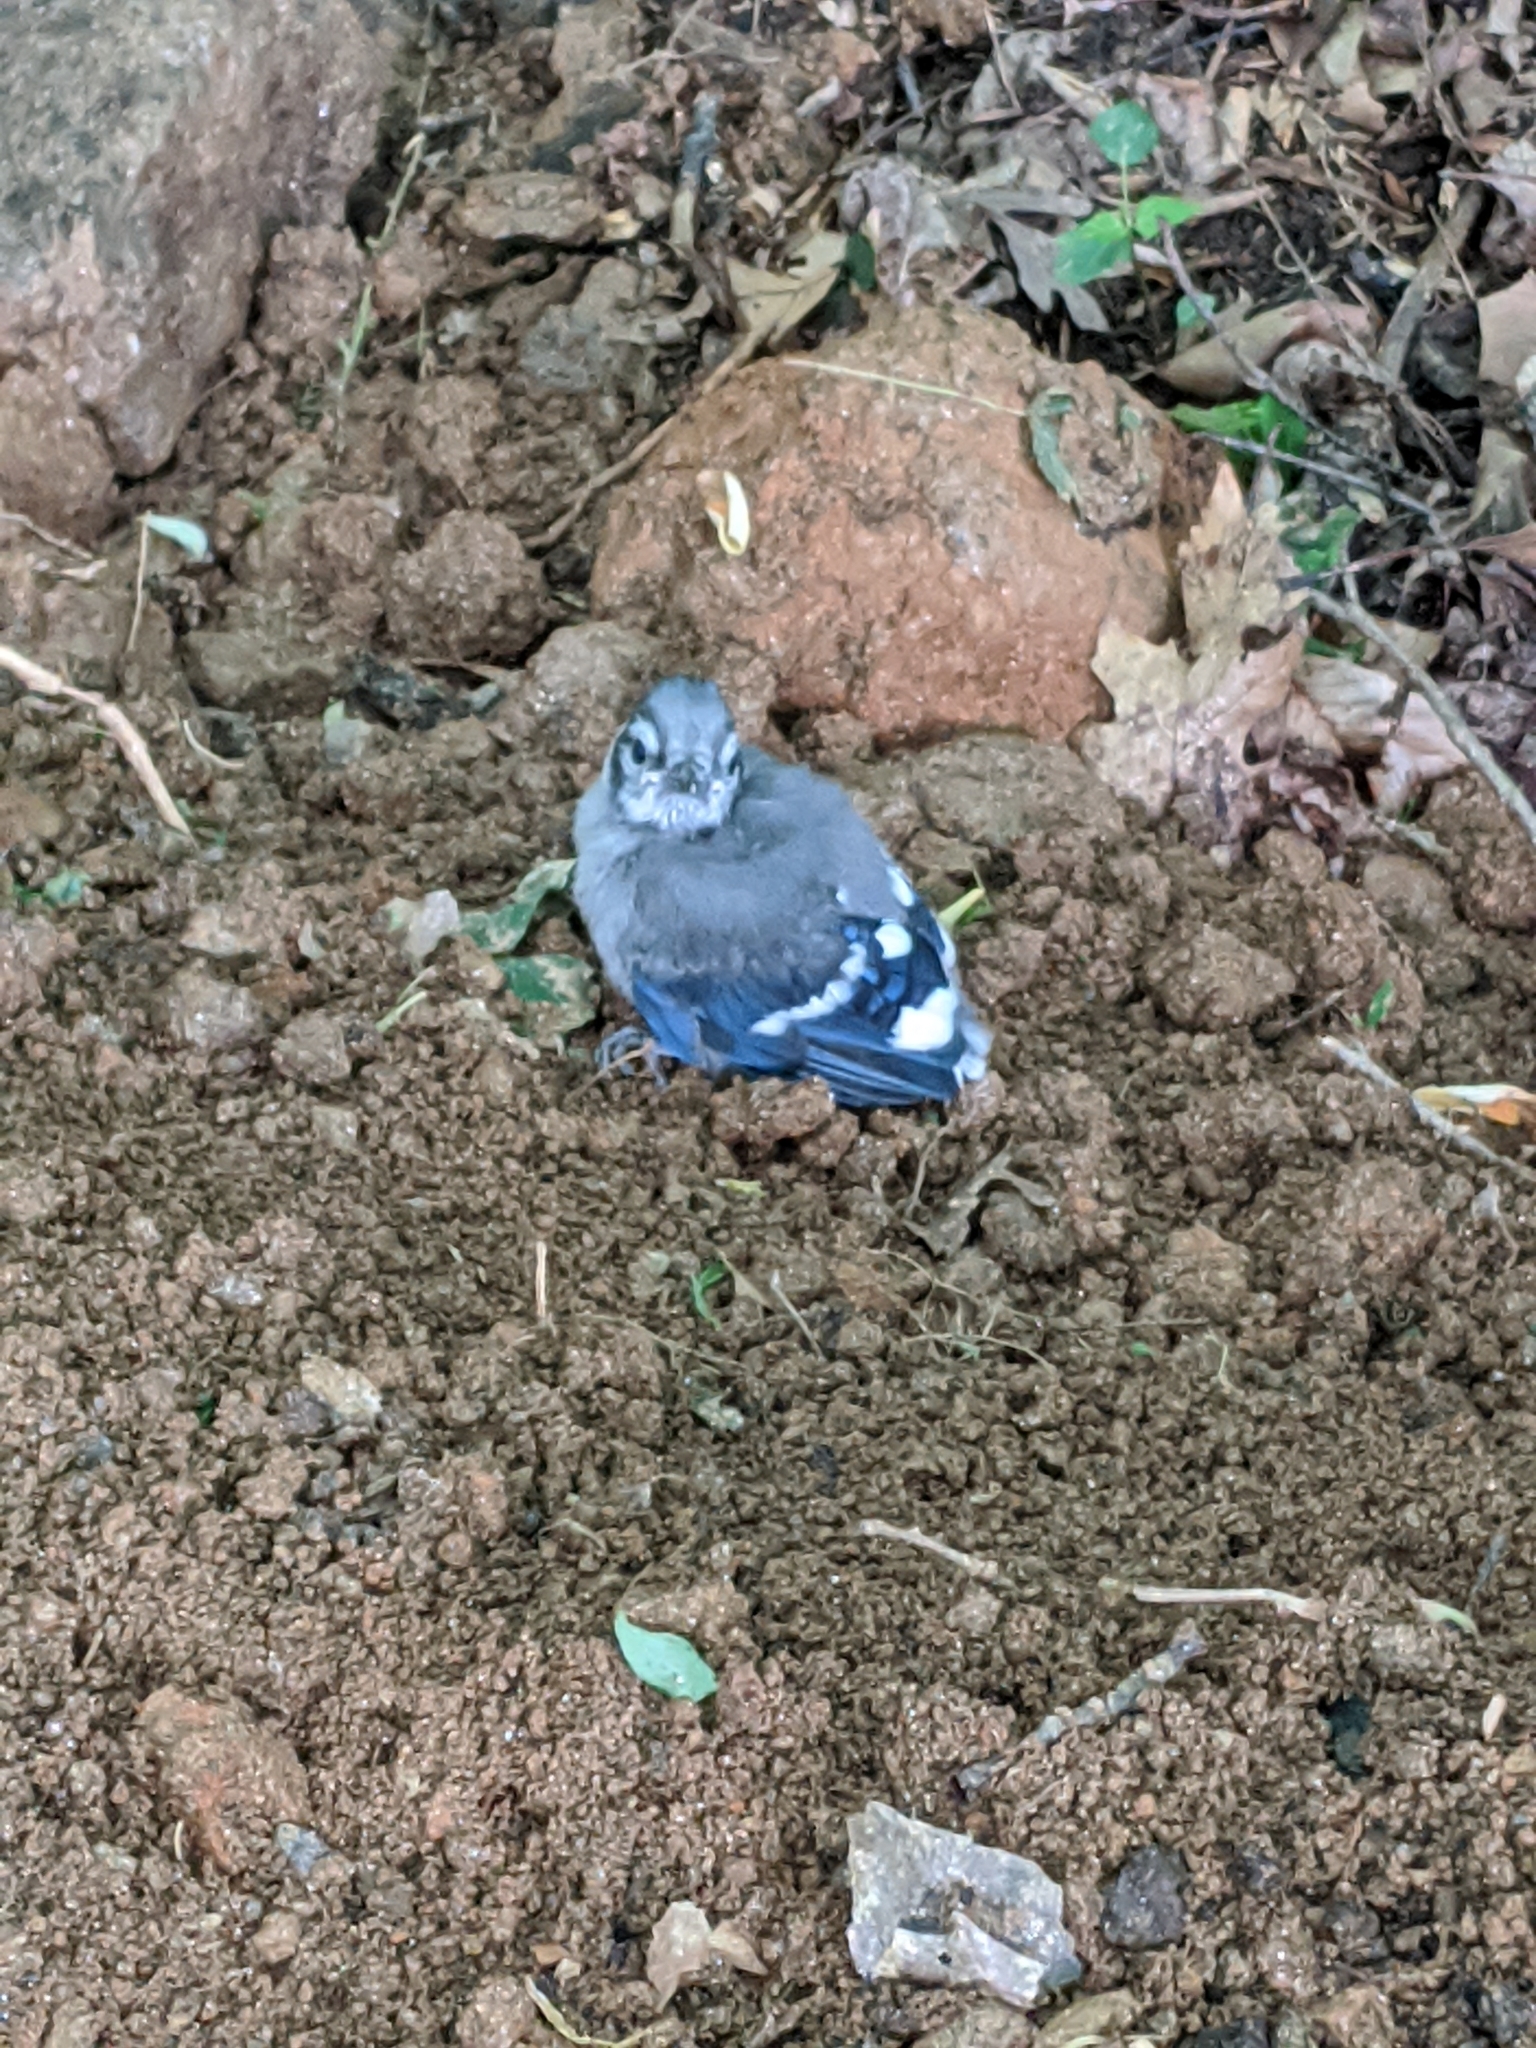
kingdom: Animalia
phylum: Chordata
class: Aves
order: Passeriformes
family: Corvidae
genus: Cyanocitta
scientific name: Cyanocitta cristata
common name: Blue jay
